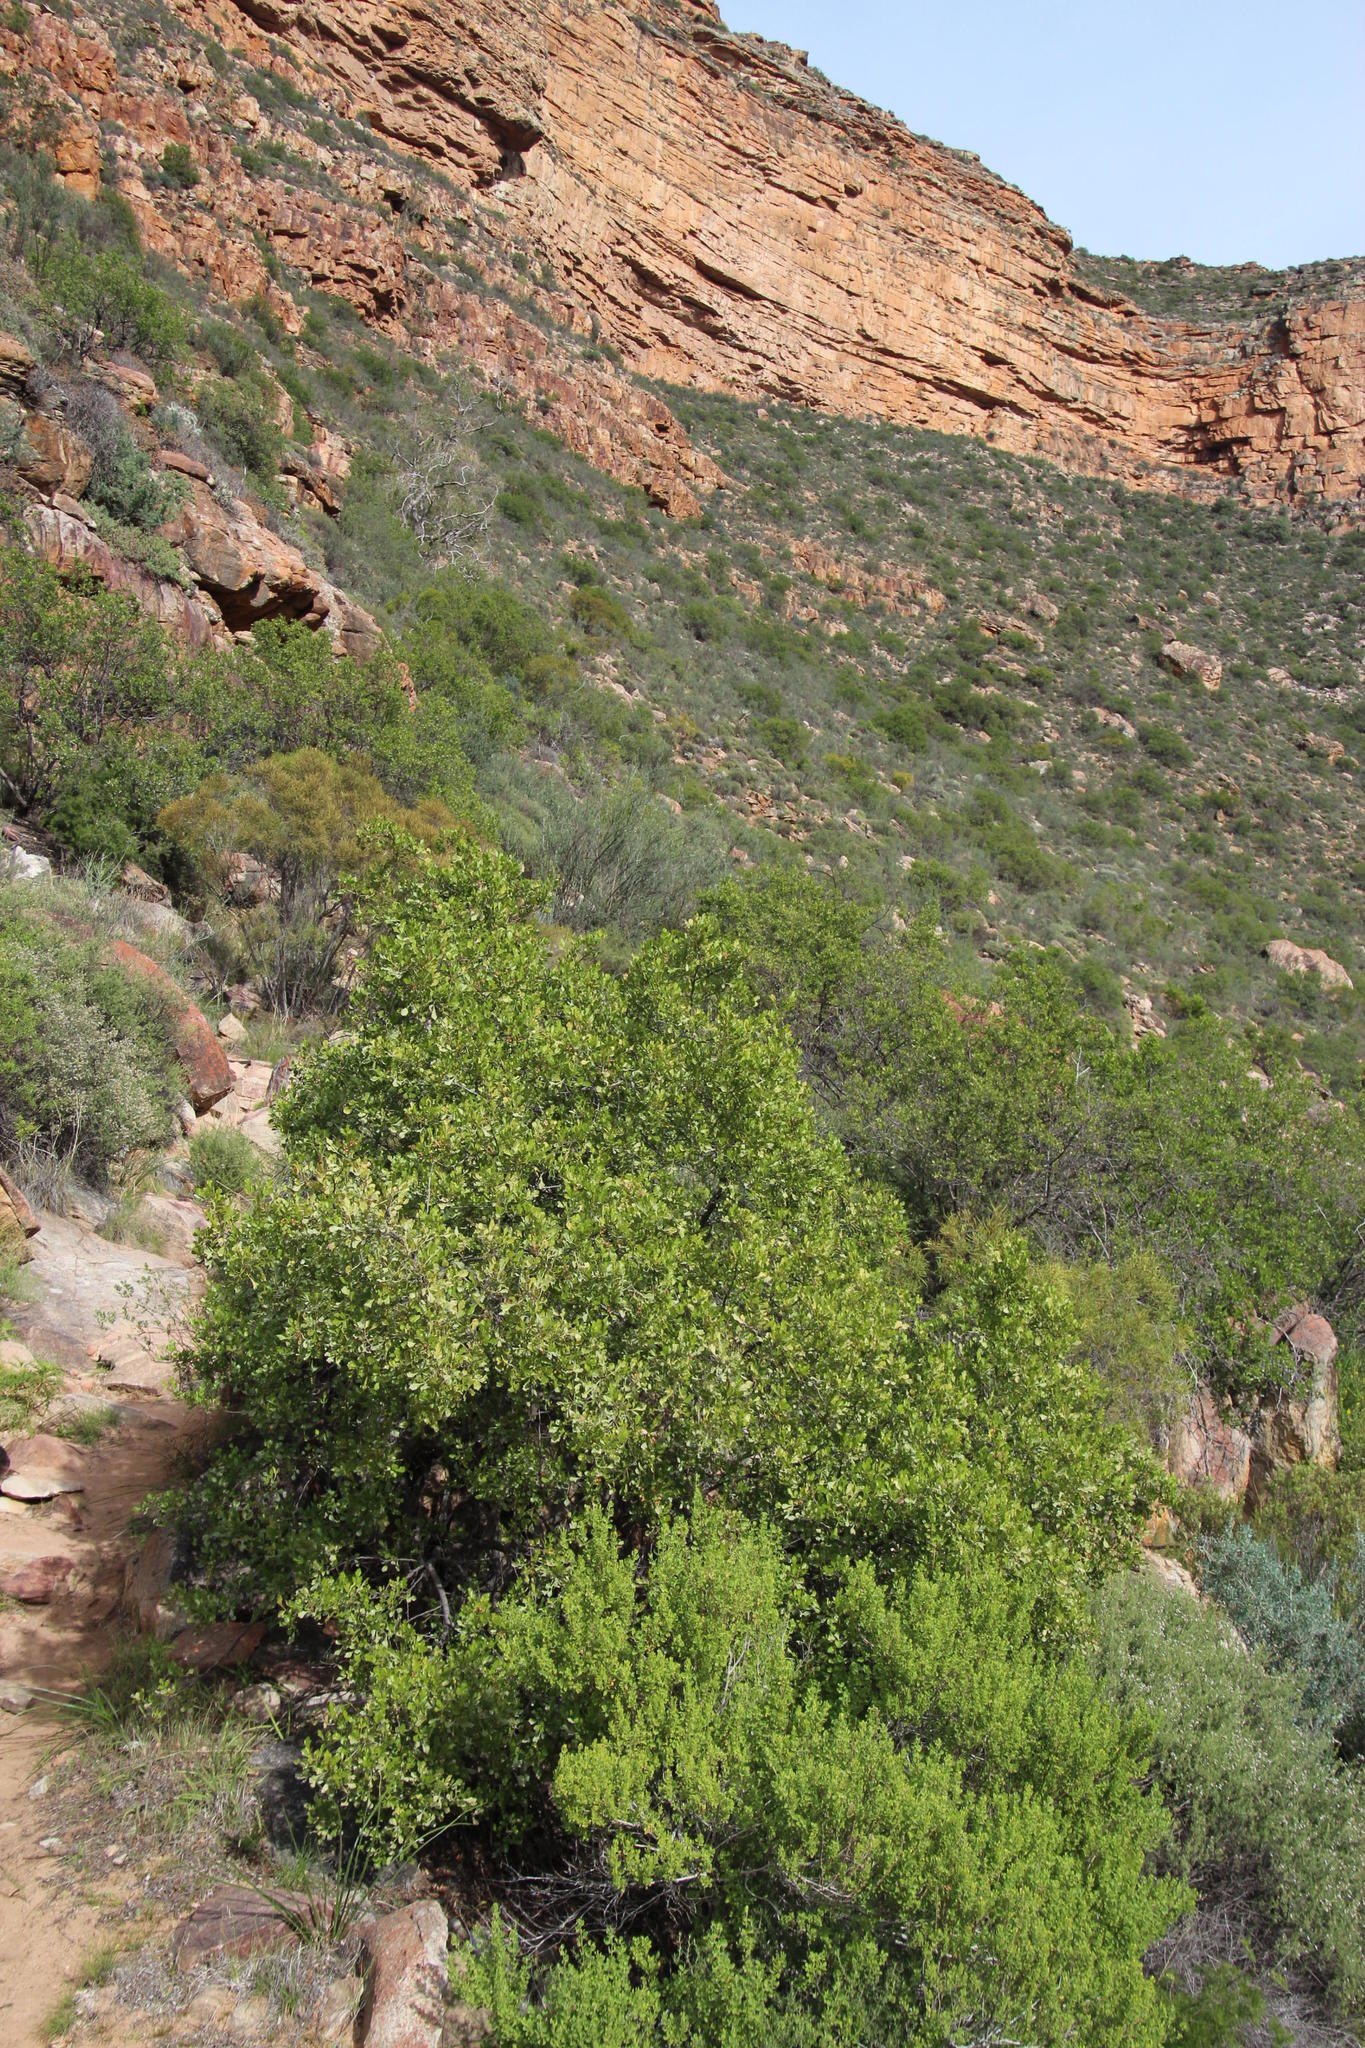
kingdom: Plantae
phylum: Tracheophyta
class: Magnoliopsida
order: Sapindales
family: Anacardiaceae
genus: Searsia
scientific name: Searsia undulata
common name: Namaqua kunibush
